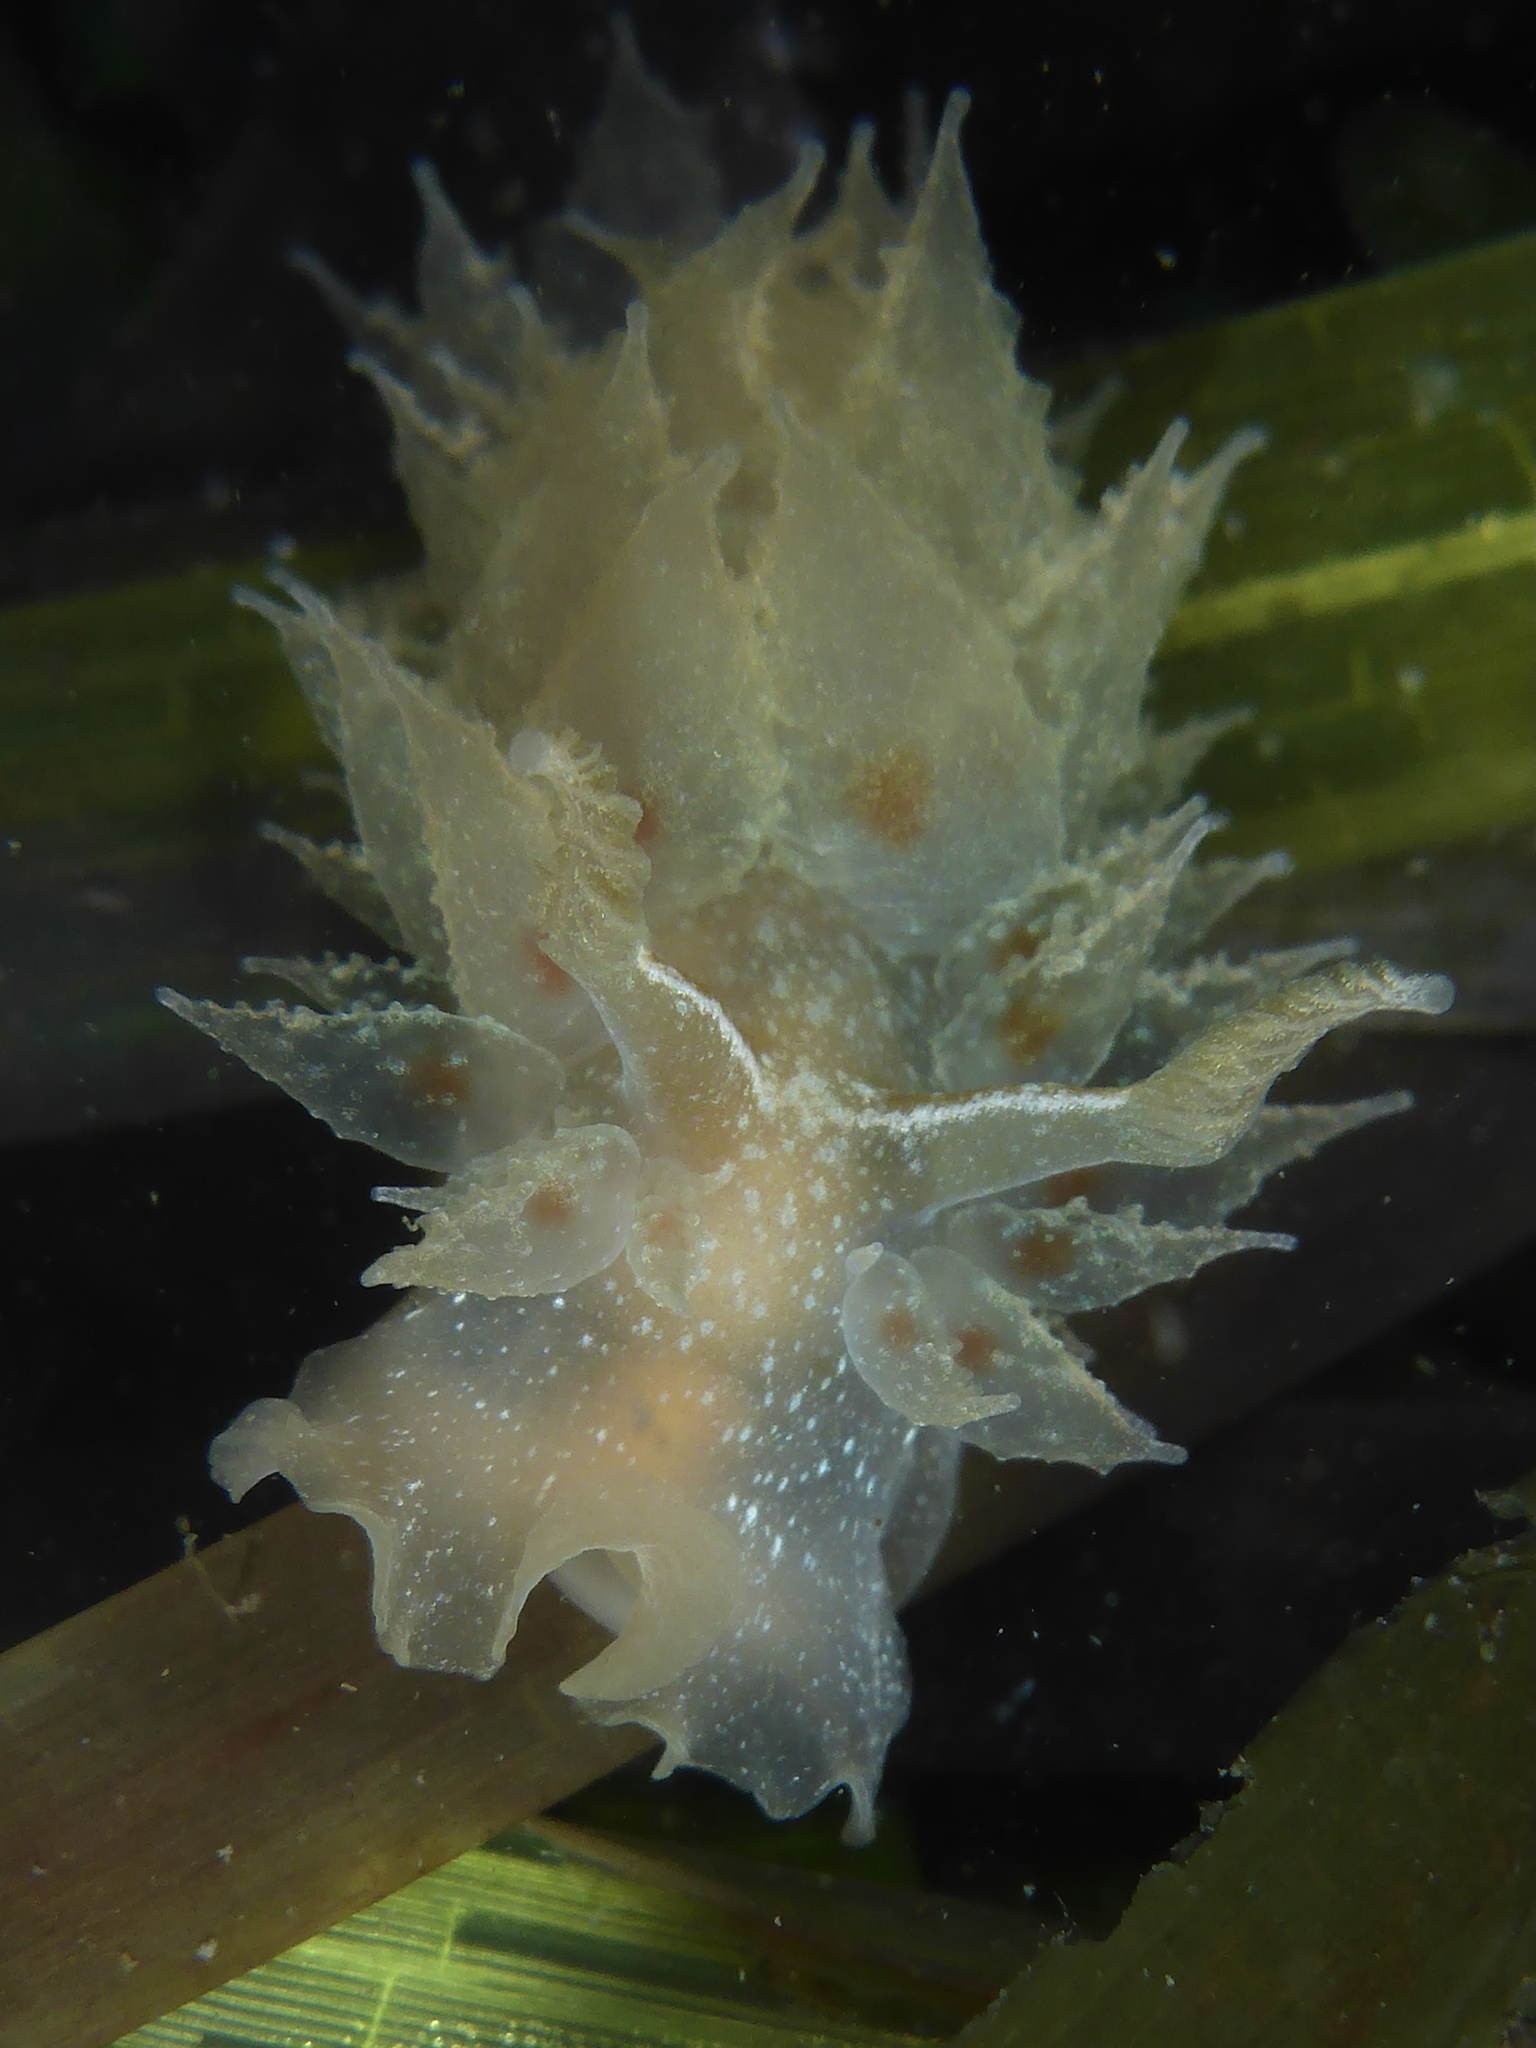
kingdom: Animalia
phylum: Mollusca
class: Gastropoda
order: Nudibranchia
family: Dironidae
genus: Dirona
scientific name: Dirona picta
